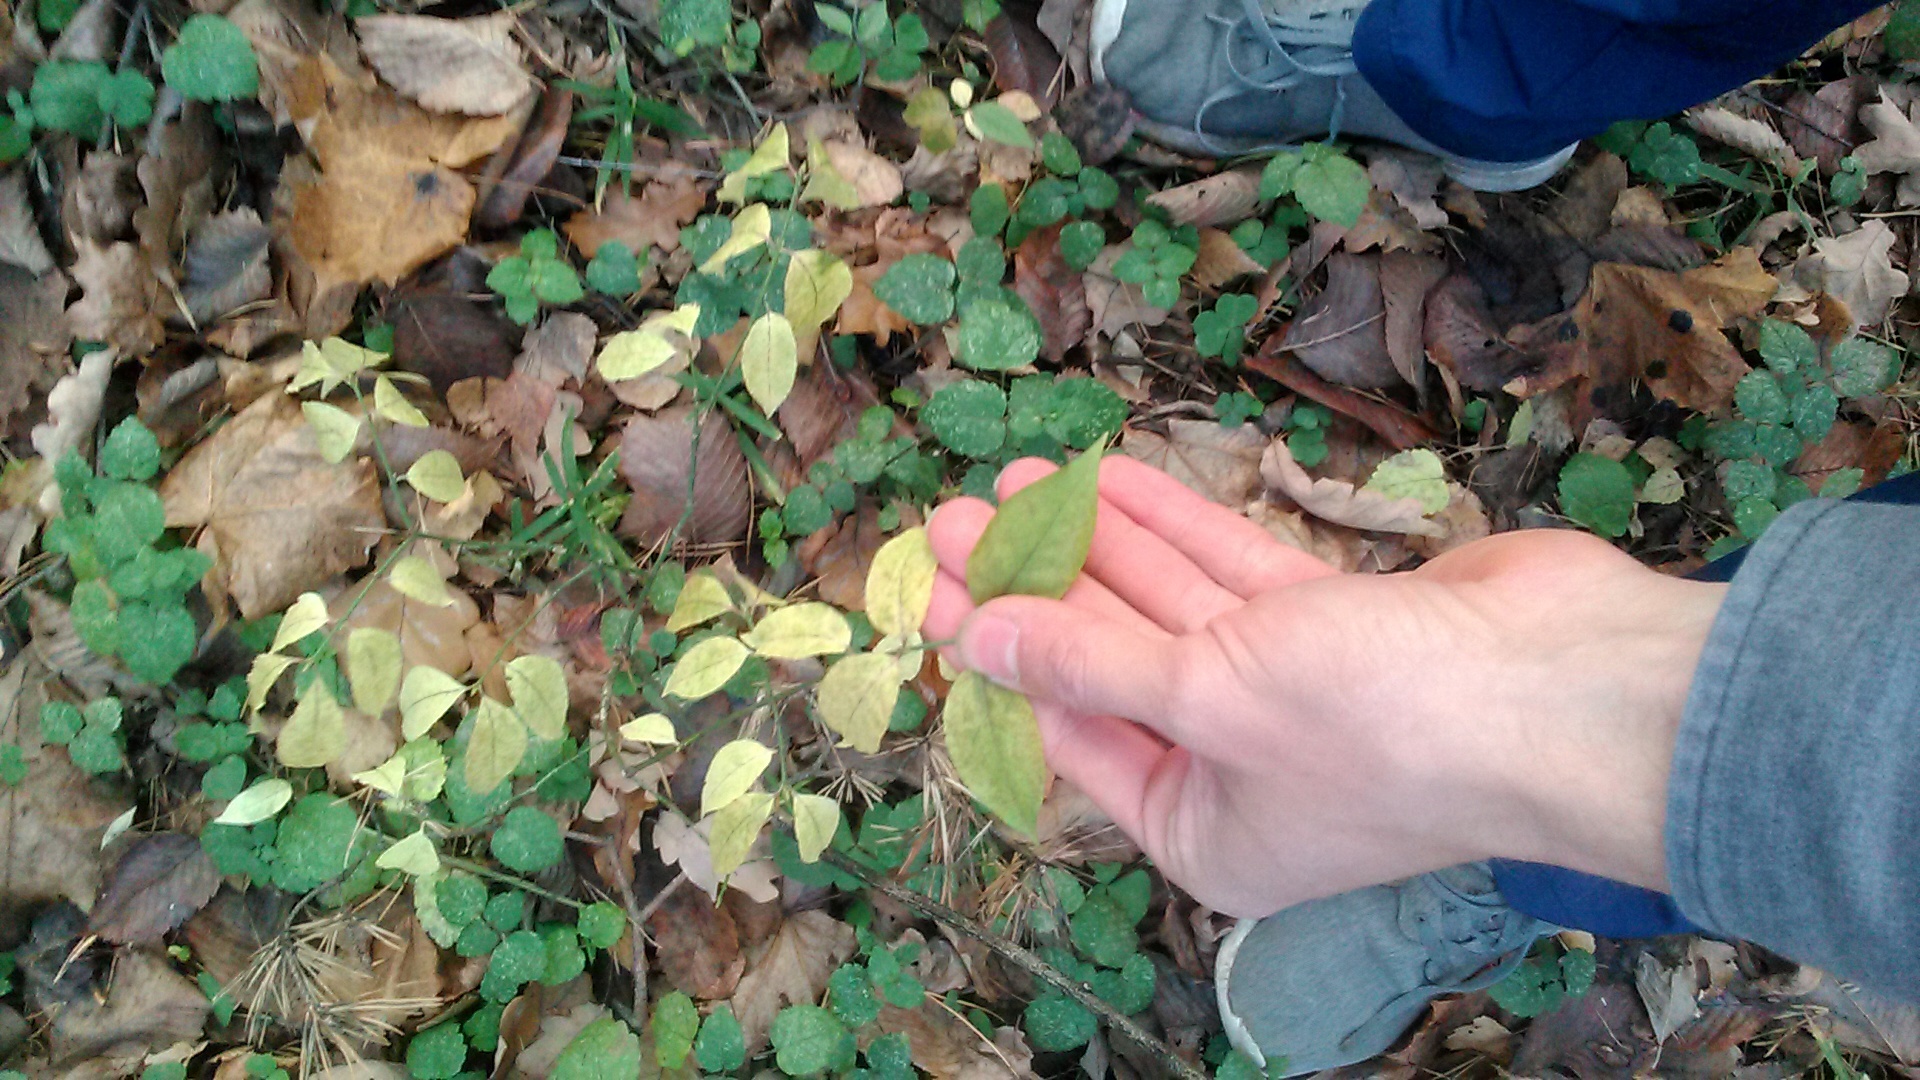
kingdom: Plantae
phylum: Tracheophyta
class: Magnoliopsida
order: Celastrales
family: Celastraceae
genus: Euonymus
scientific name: Euonymus verrucosus
